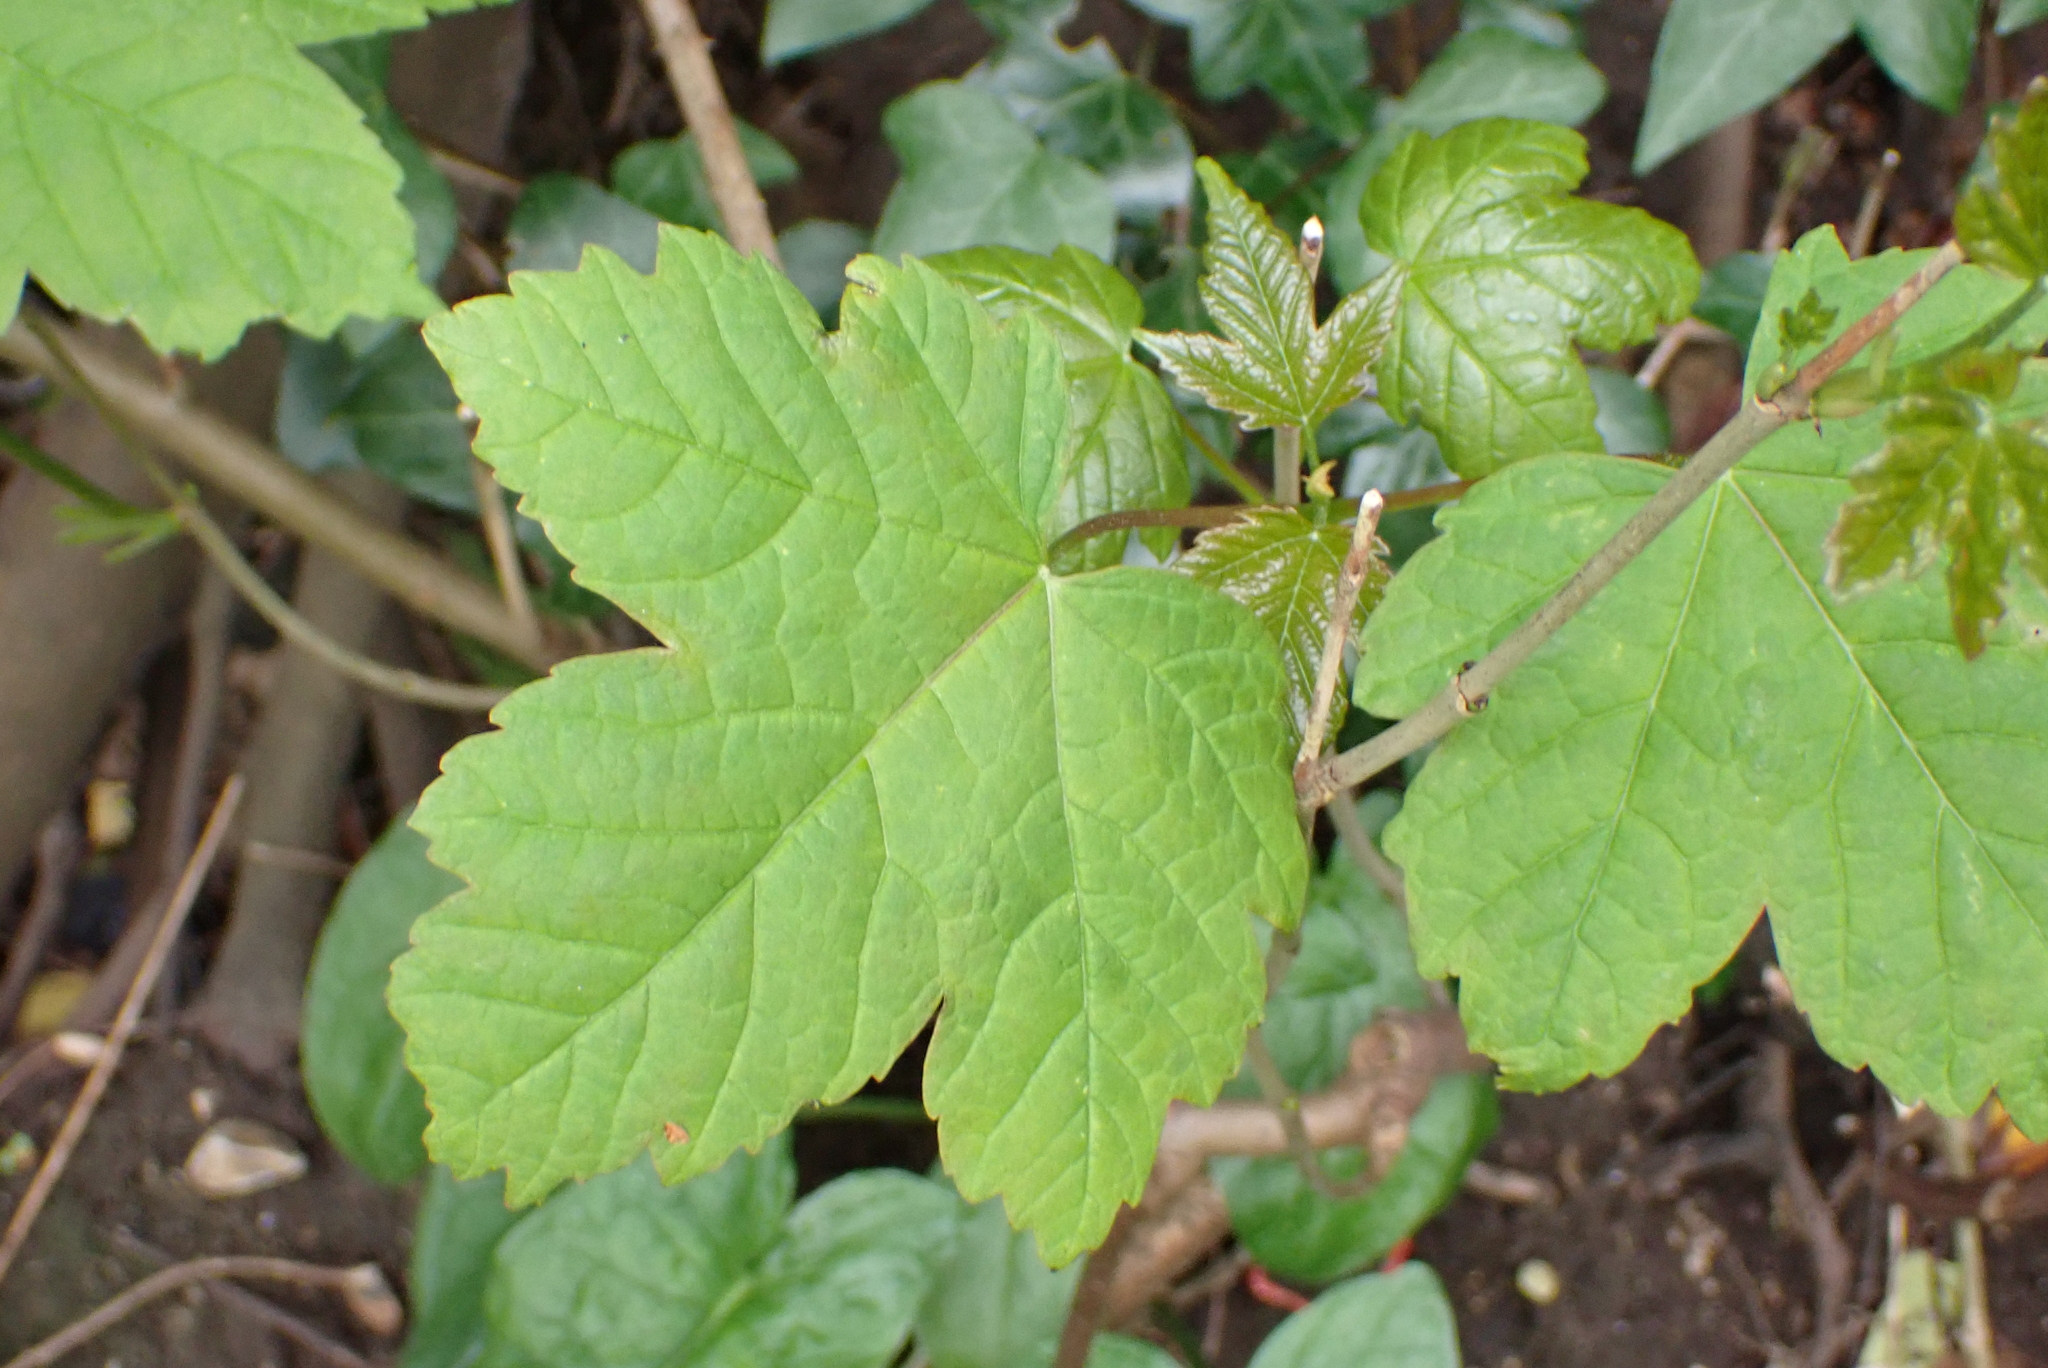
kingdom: Plantae
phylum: Tracheophyta
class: Magnoliopsida
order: Sapindales
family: Sapindaceae
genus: Acer
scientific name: Acer pseudoplatanus
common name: Sycamore
